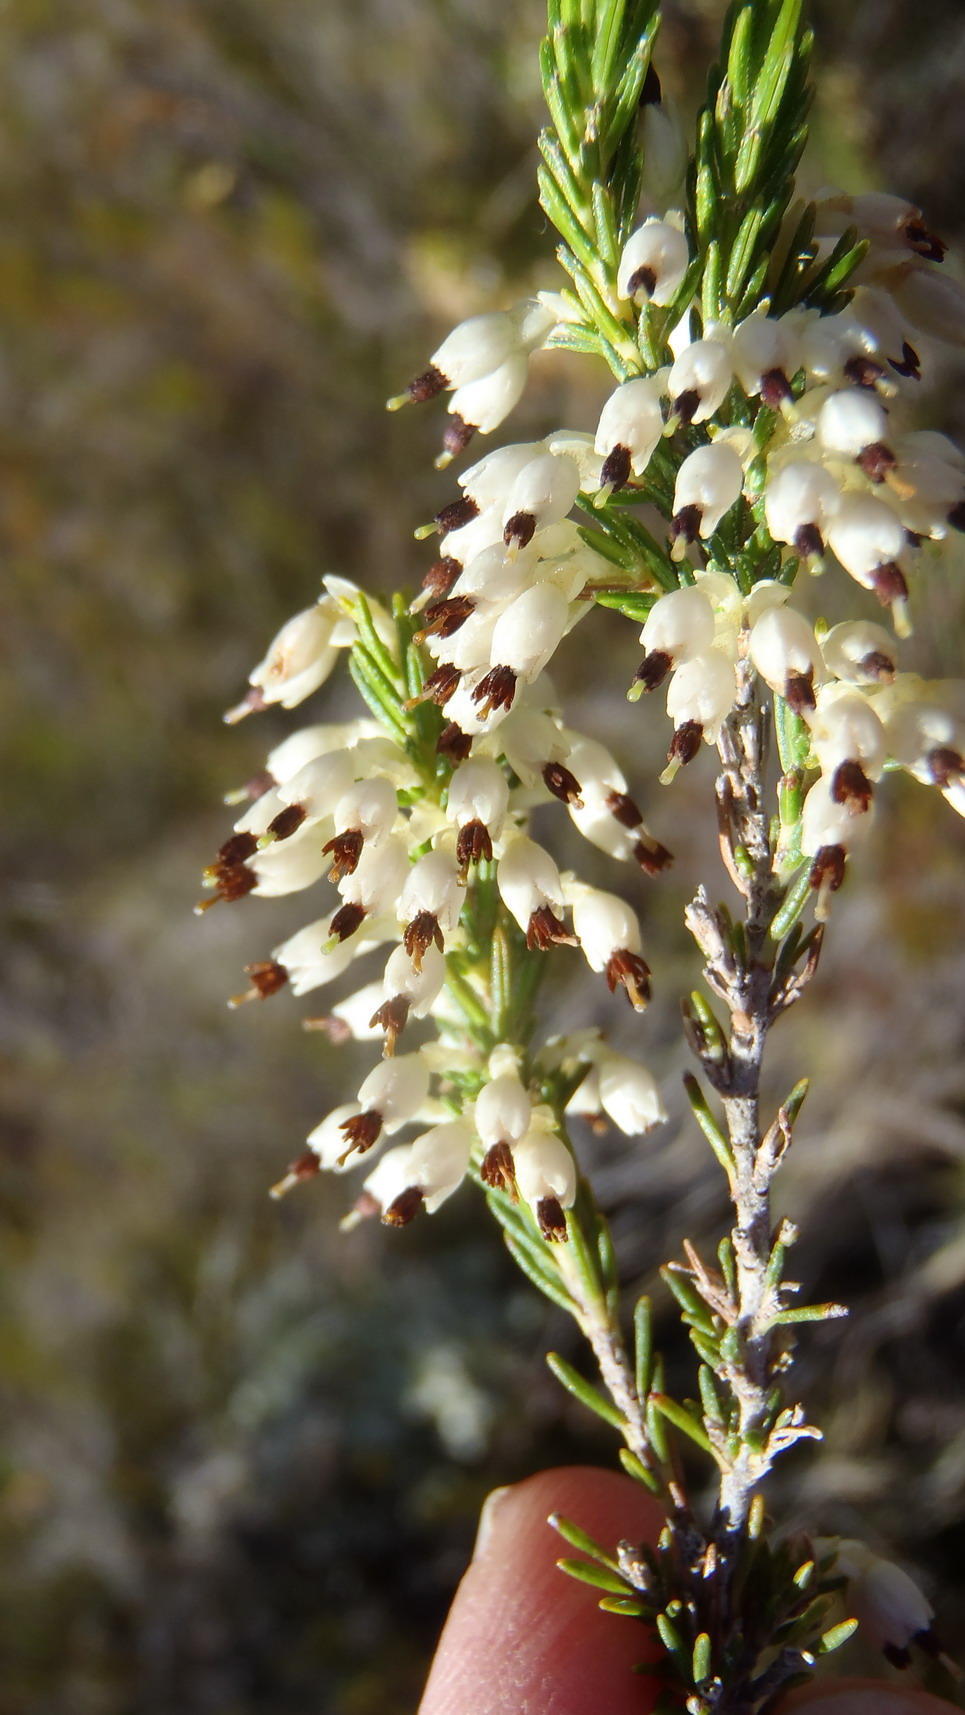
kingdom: Plantae
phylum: Tracheophyta
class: Magnoliopsida
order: Ericales
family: Ericaceae
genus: Erica
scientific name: Erica imbricata
